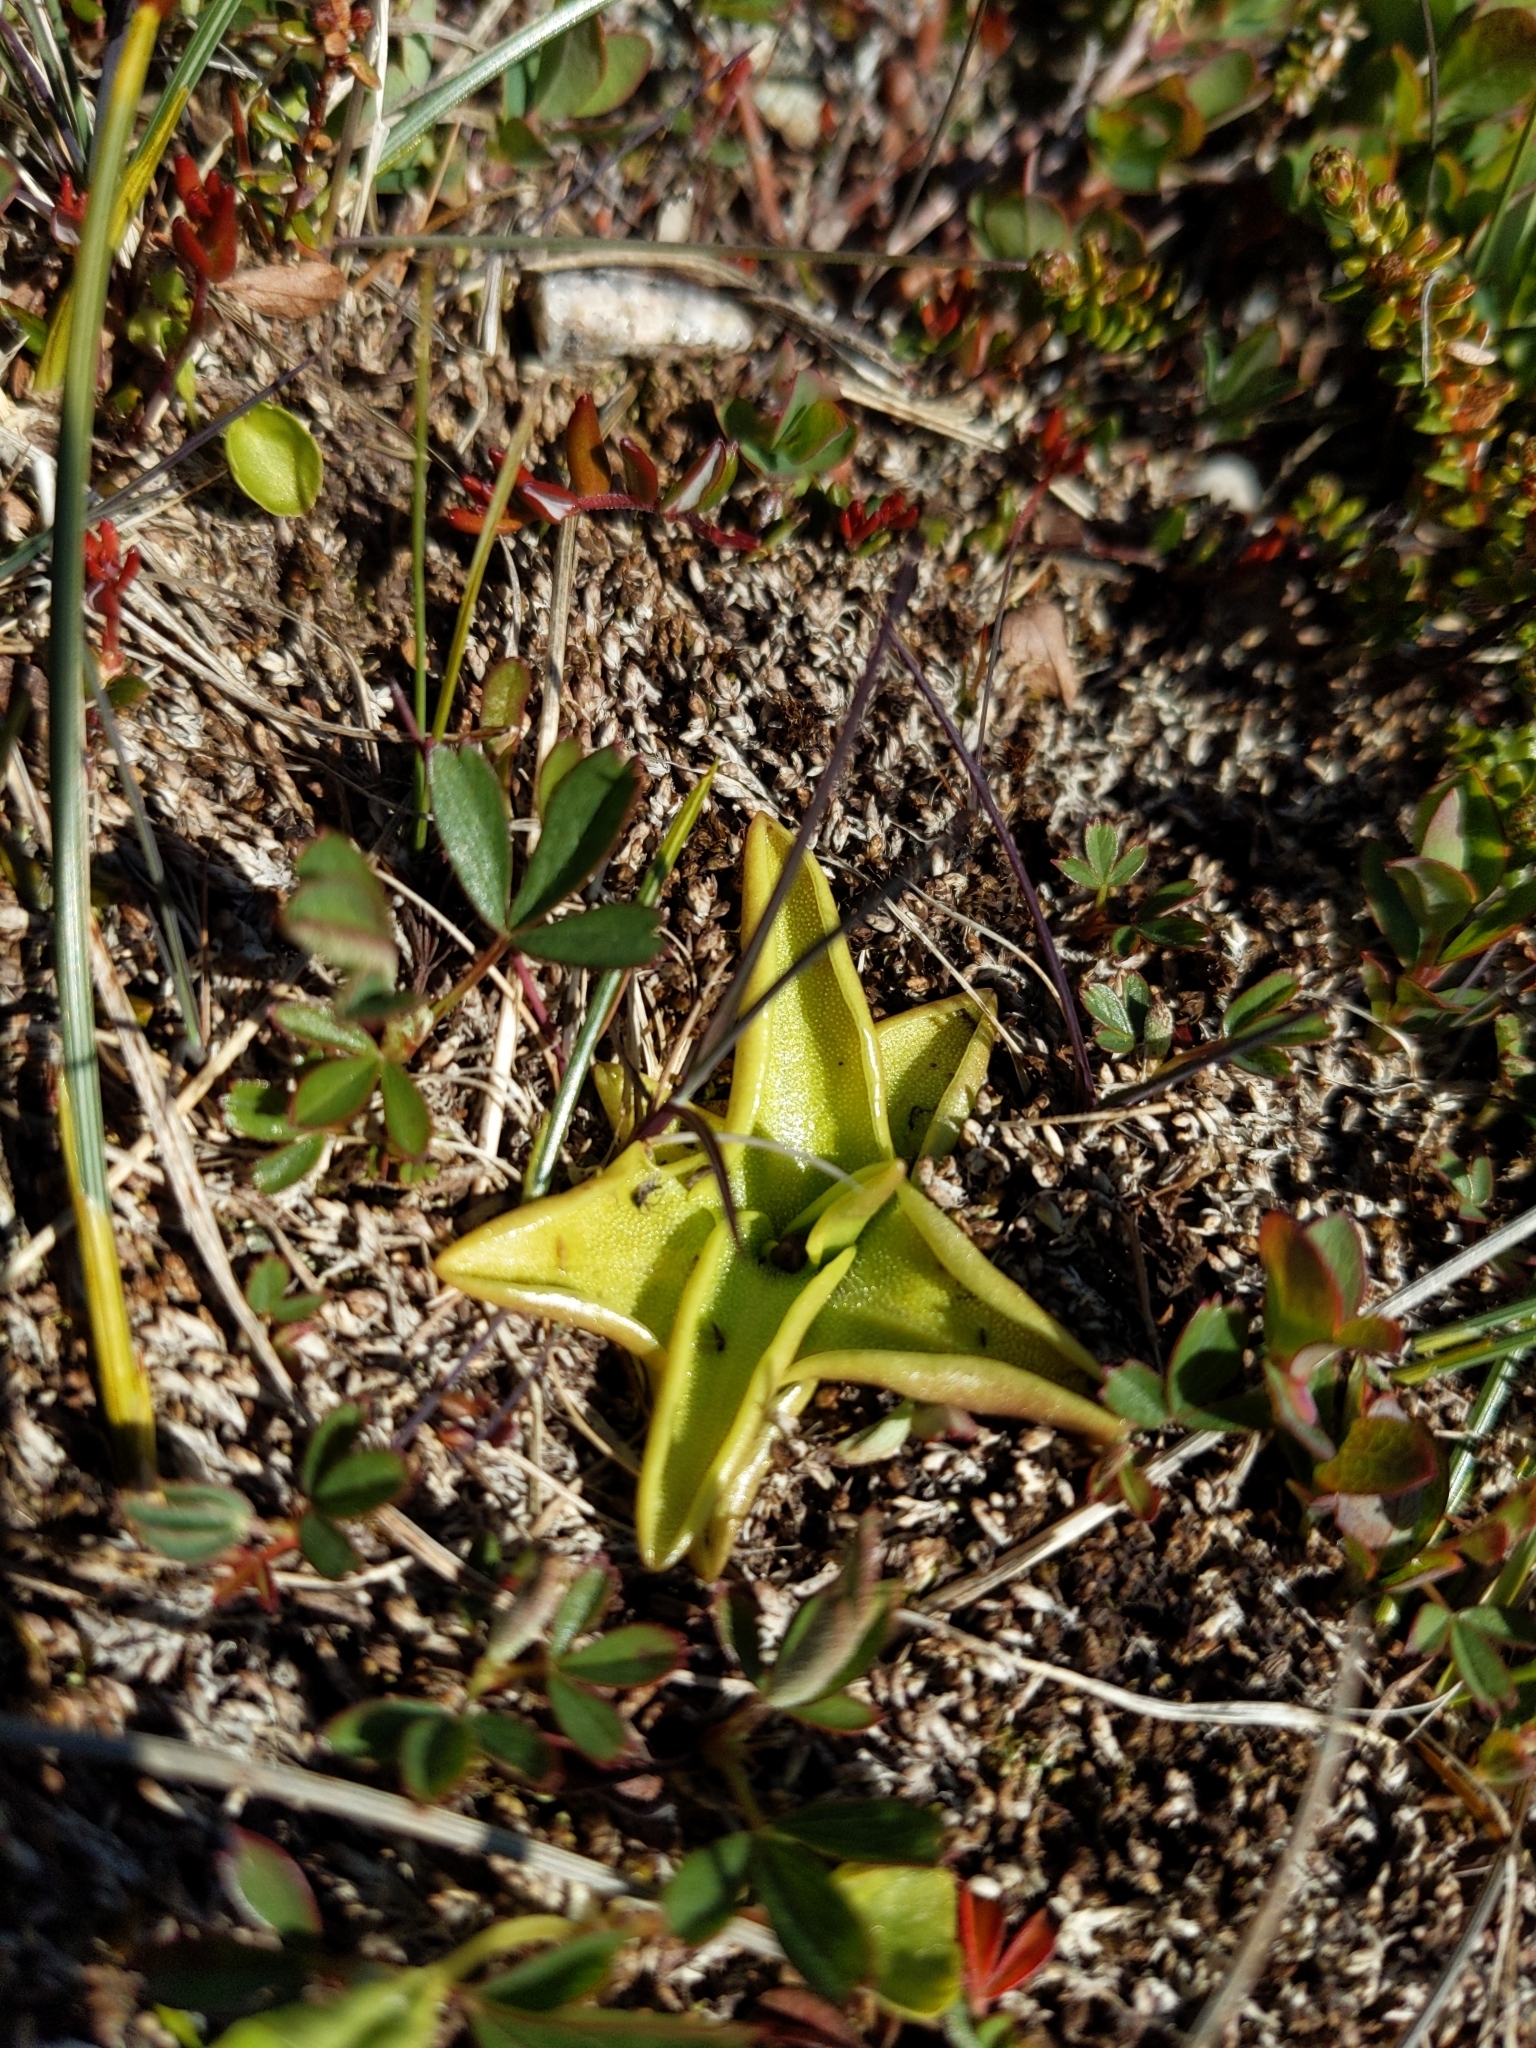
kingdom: Plantae
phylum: Tracheophyta
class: Magnoliopsida
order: Lamiales
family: Lentibulariaceae
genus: Pinguicula
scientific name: Pinguicula vulgaris
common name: Common butterwort
